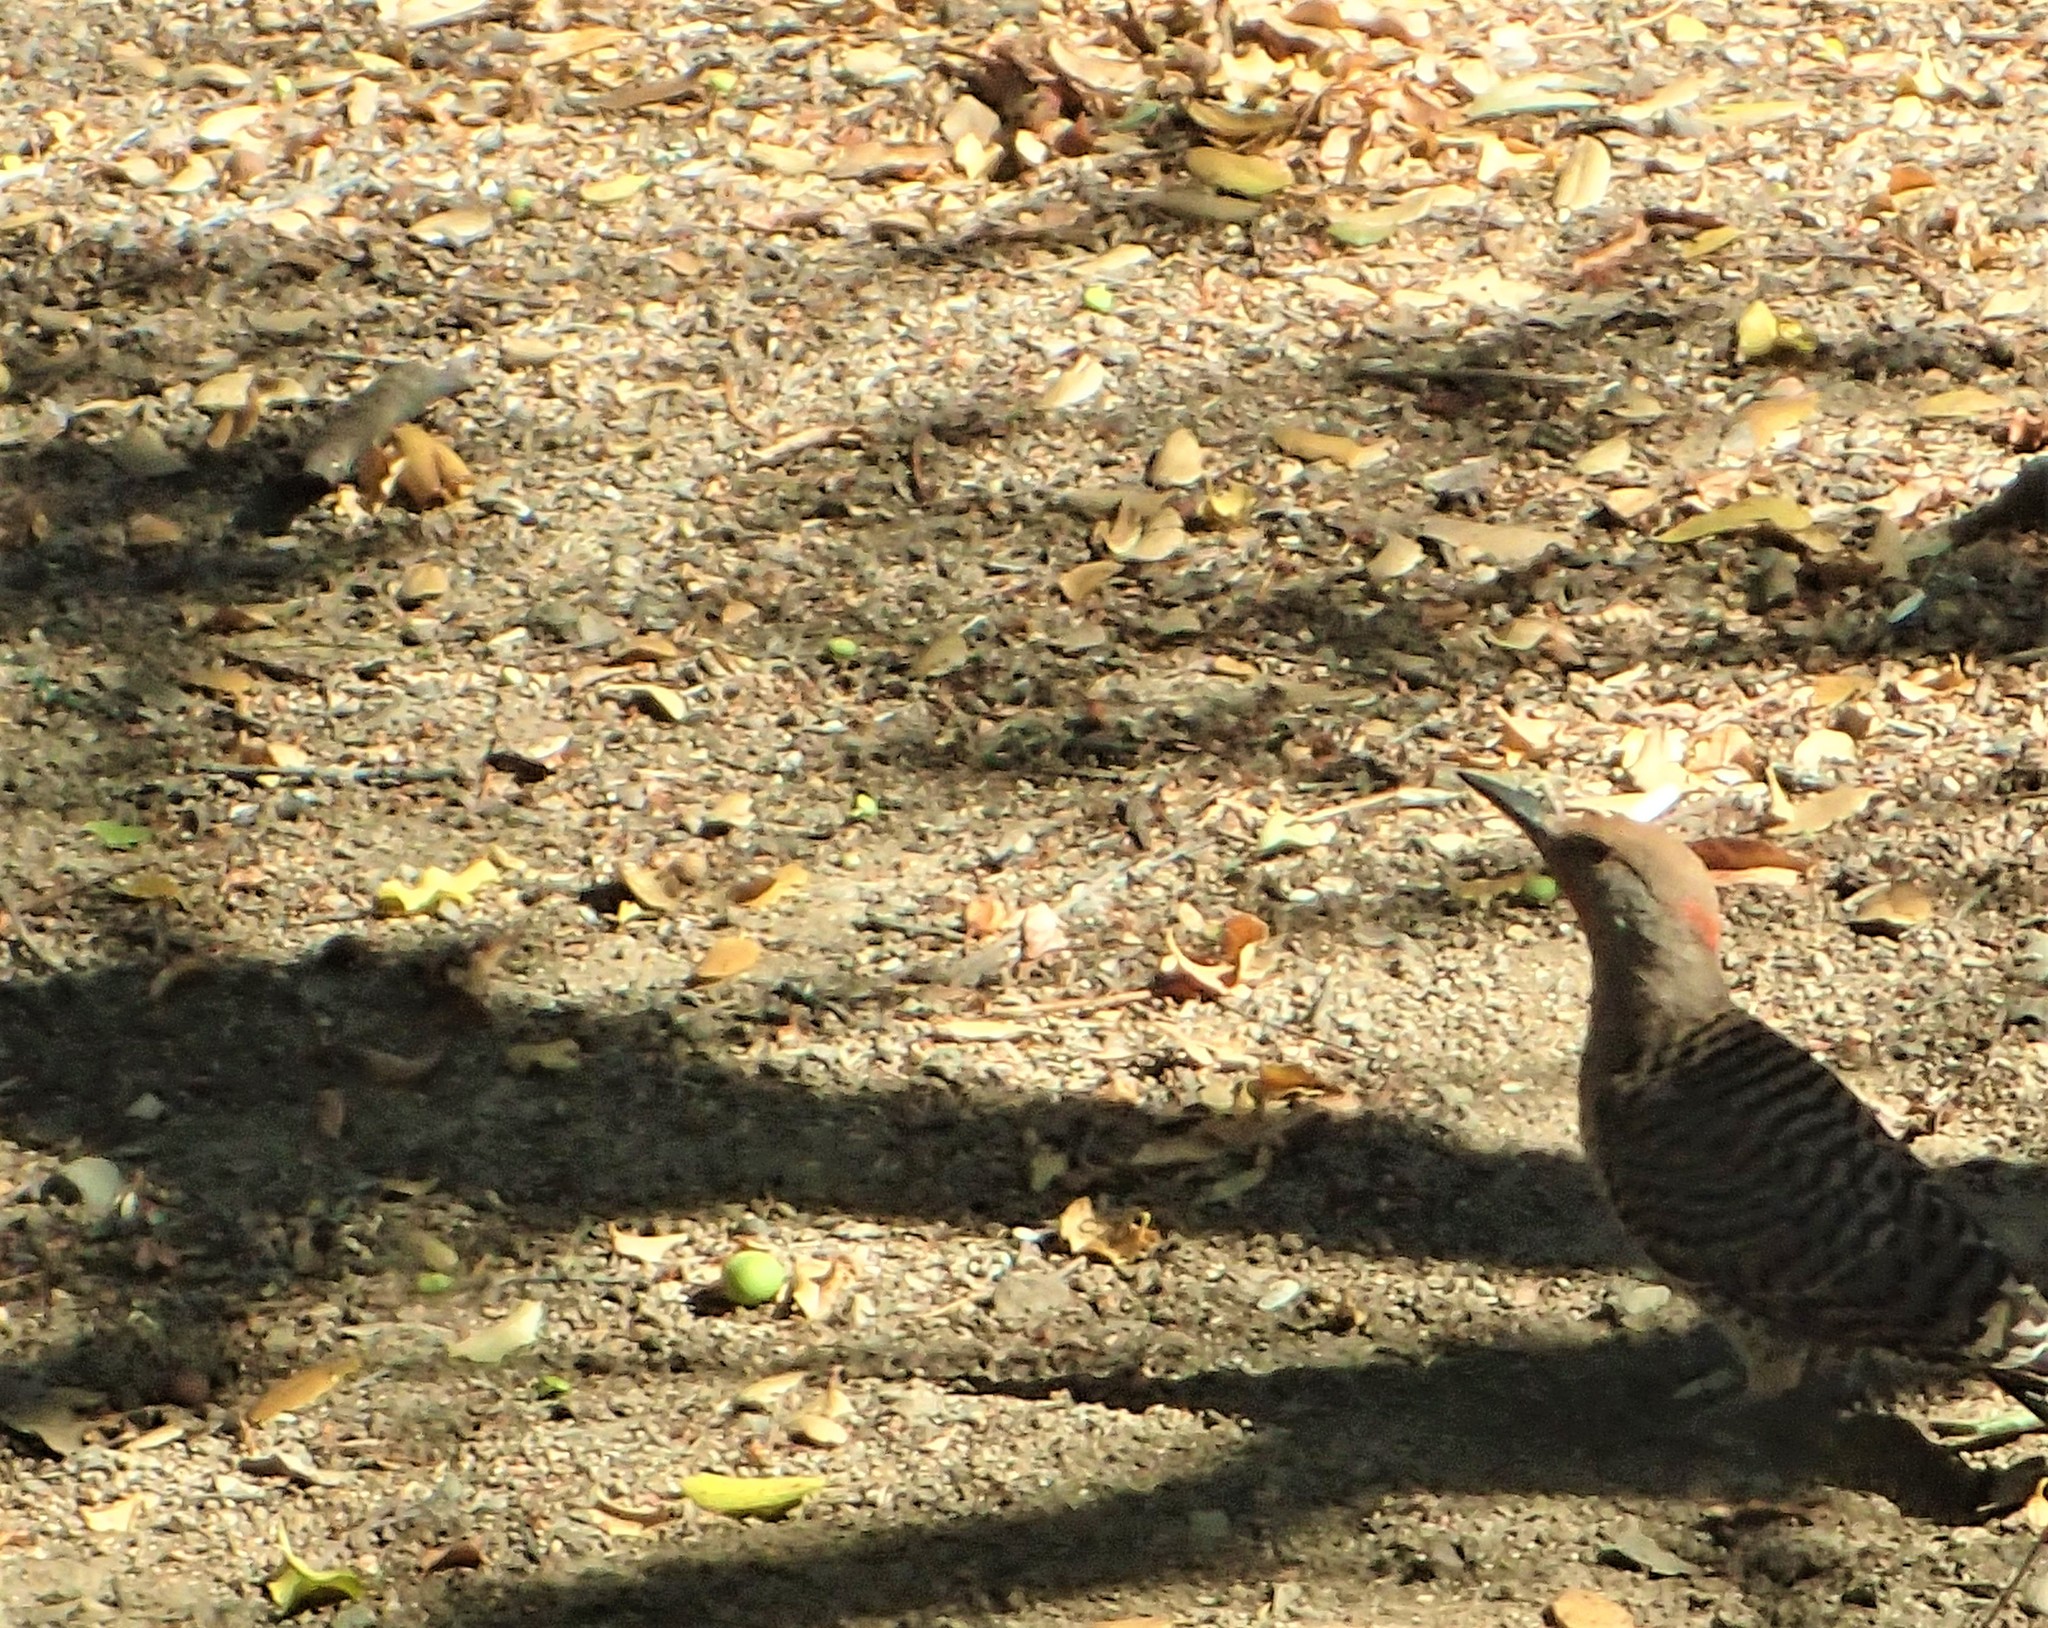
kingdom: Animalia
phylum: Chordata
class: Aves
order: Piciformes
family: Picidae
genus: Colaptes
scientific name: Colaptes auratus
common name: Northern flicker
